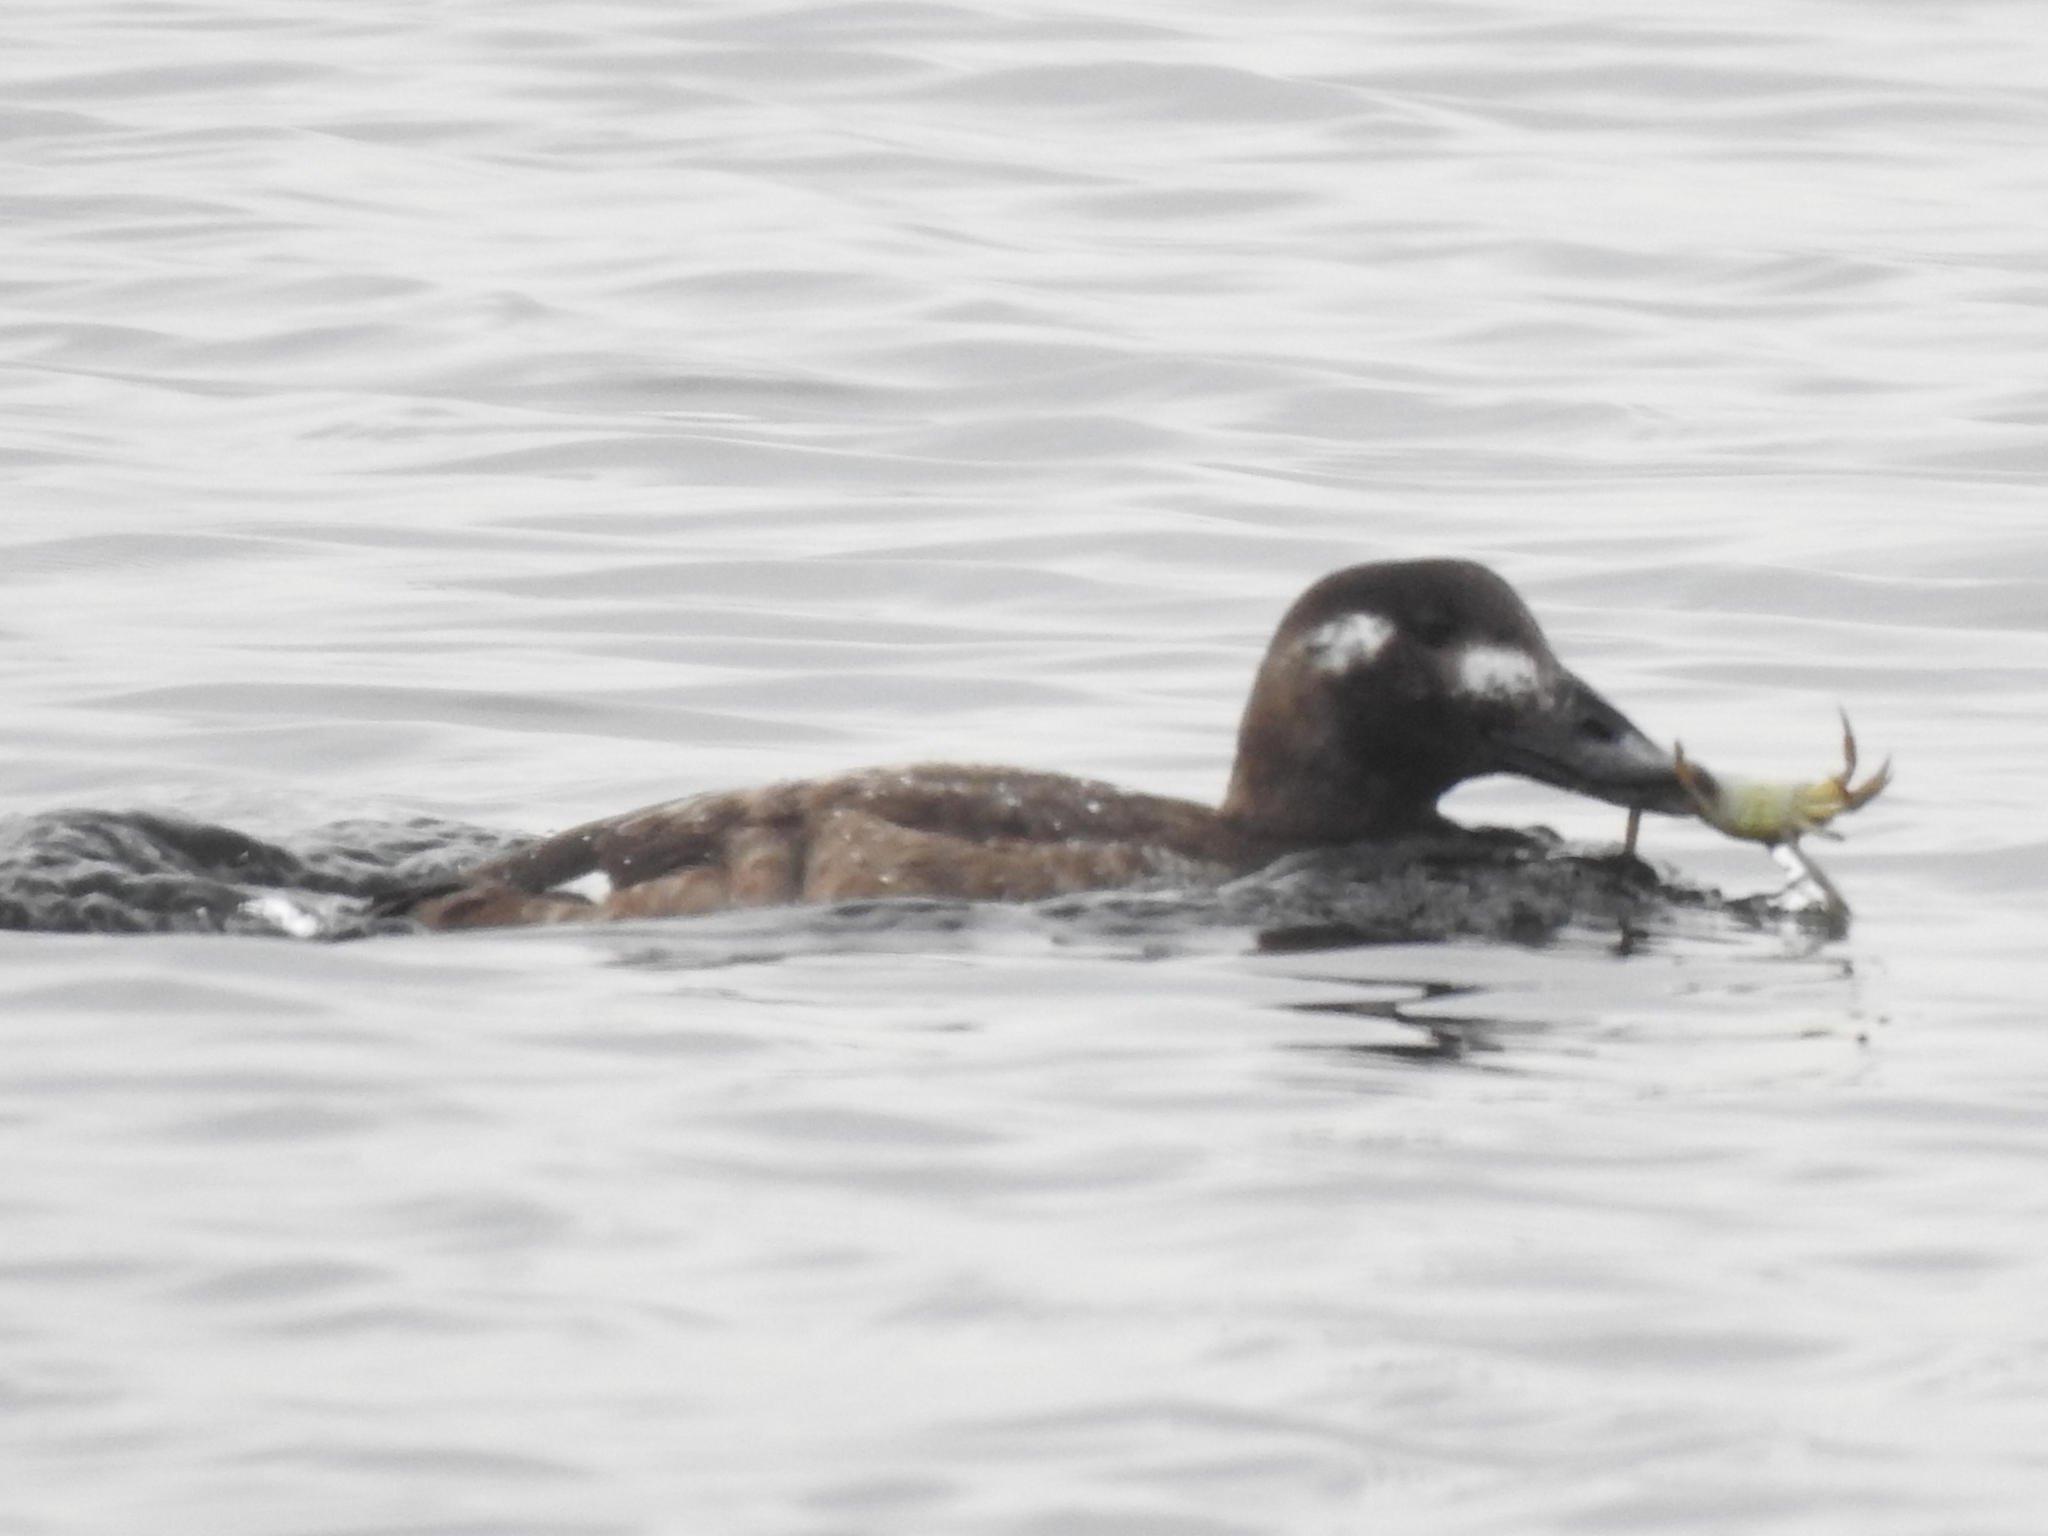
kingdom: Animalia
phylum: Chordata
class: Aves
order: Anseriformes
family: Anatidae
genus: Melanitta
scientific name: Melanitta deglandi
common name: White-winged scoter
